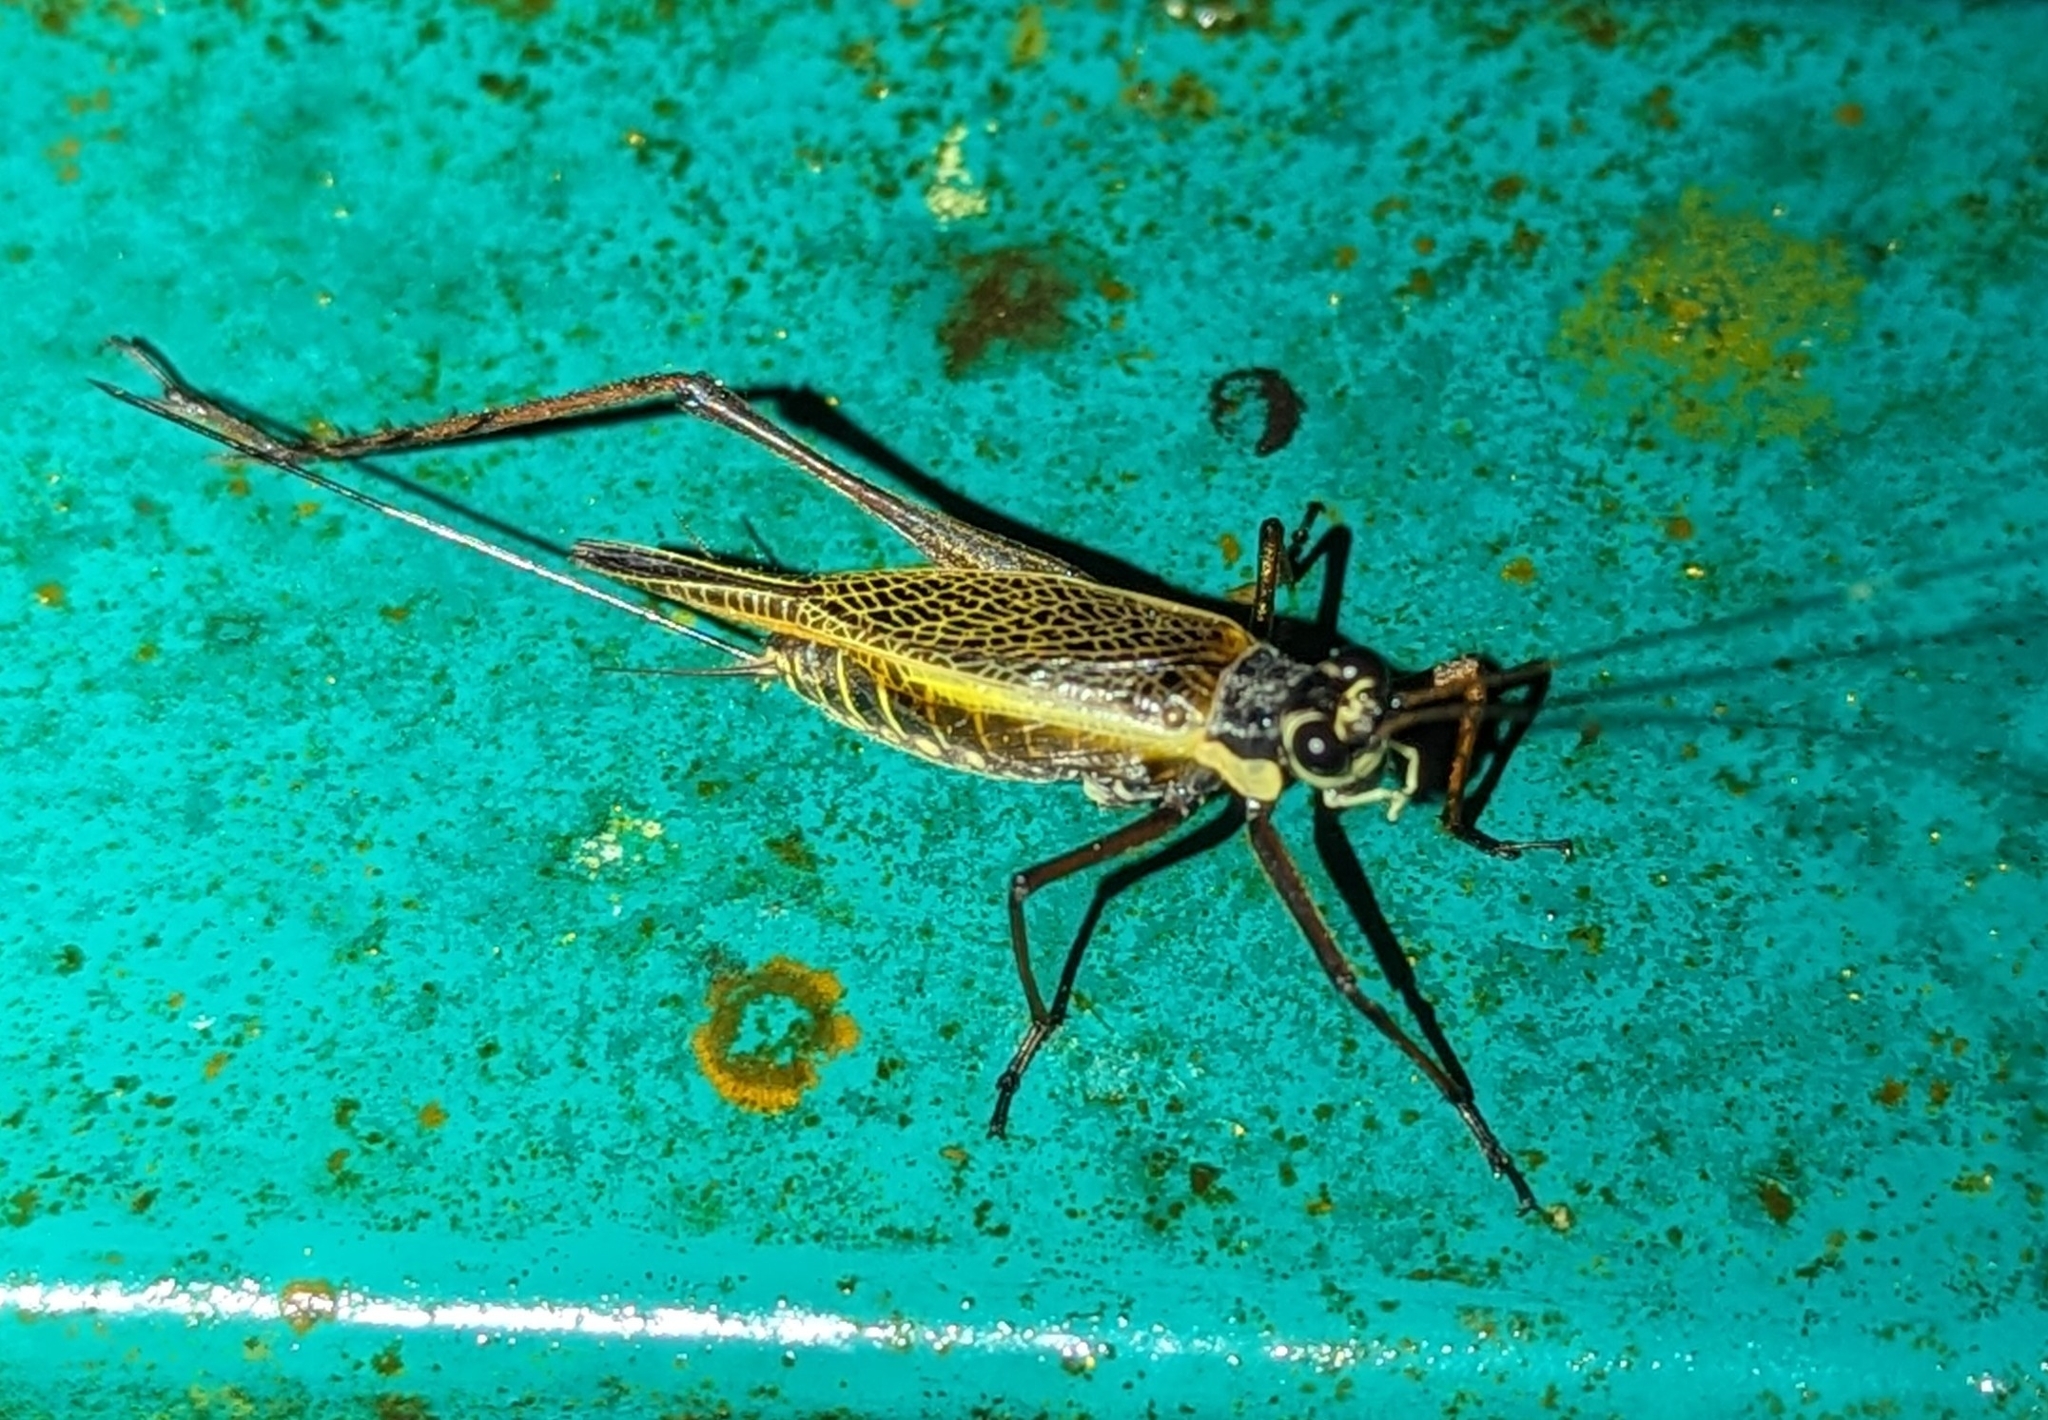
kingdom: Animalia
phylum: Arthropoda
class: Insecta
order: Orthoptera
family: Gryllidae
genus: Nisitrus
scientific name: Nisitrus musicus
